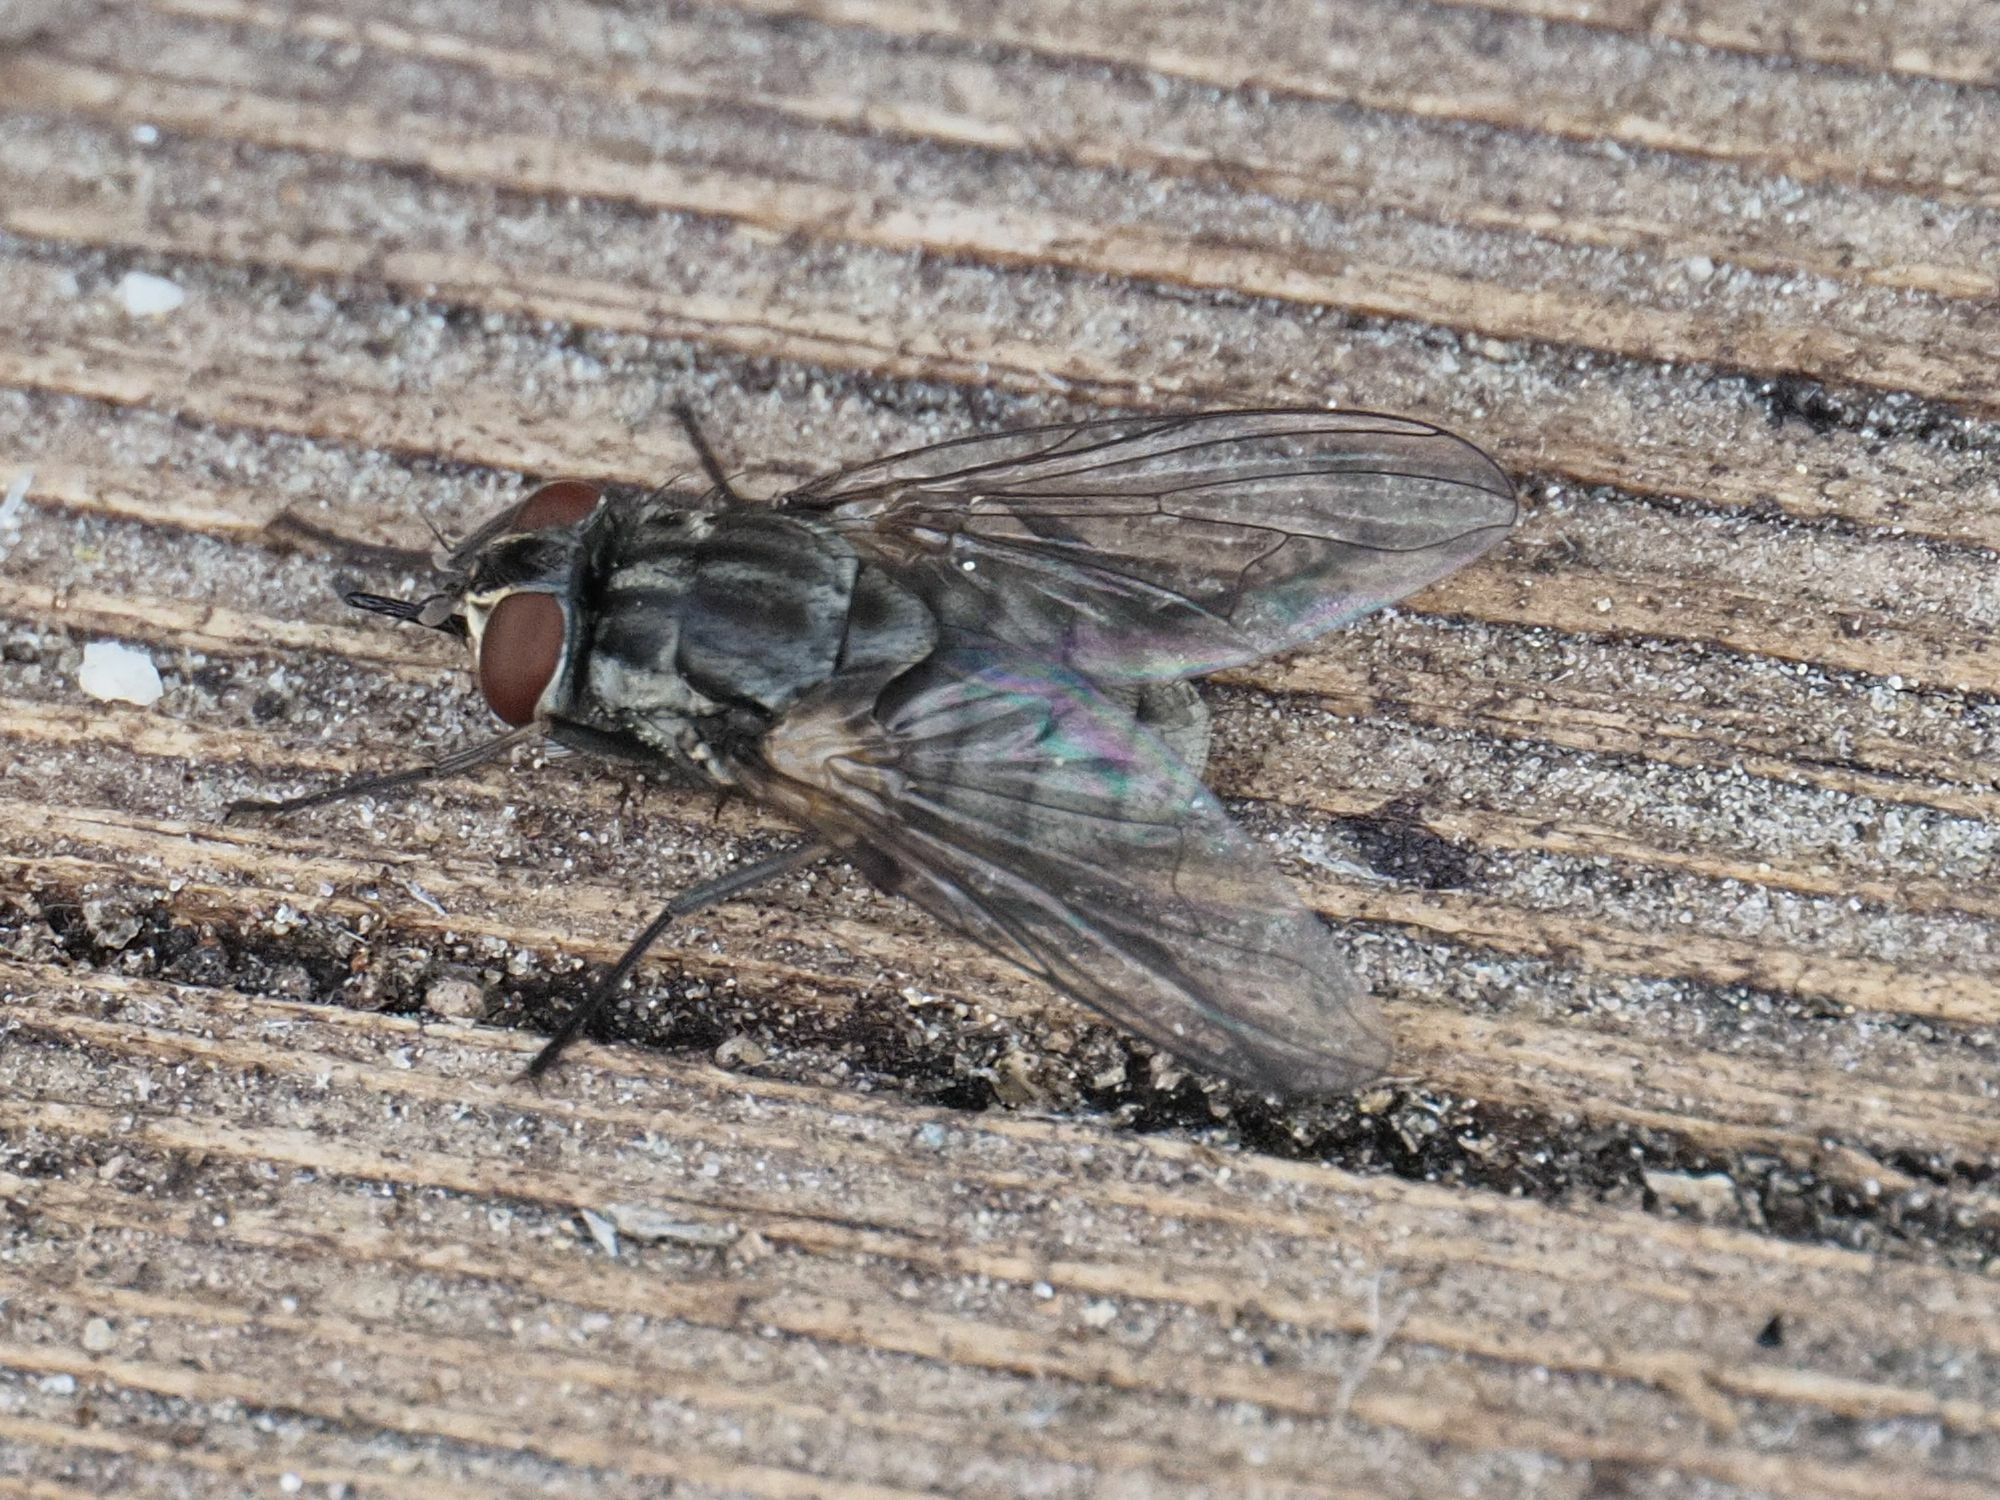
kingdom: Animalia
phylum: Arthropoda
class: Insecta
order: Diptera
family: Muscidae
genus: Stomoxys
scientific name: Stomoxys calcitrans
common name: Stable fly
